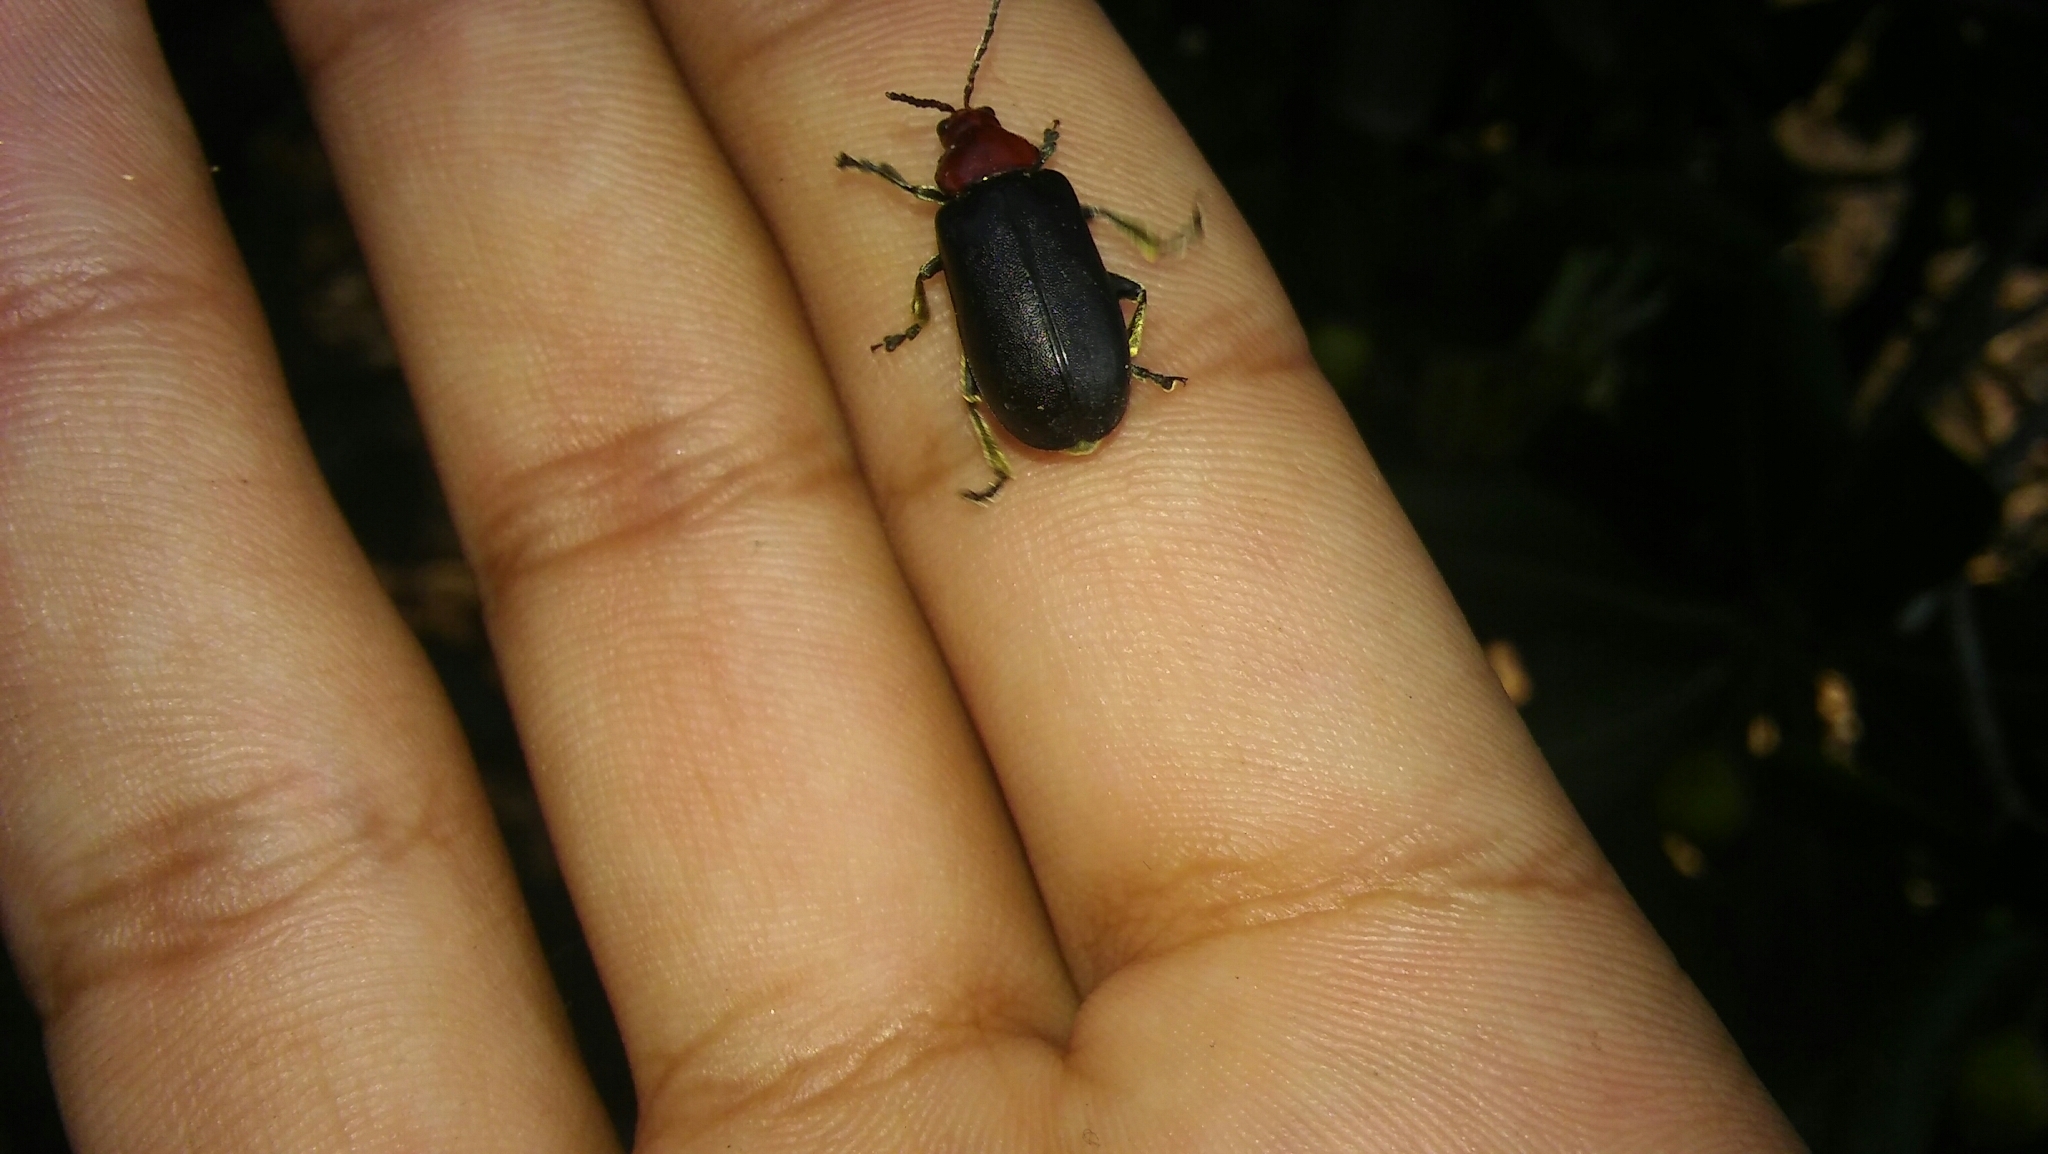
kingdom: Animalia
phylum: Arthropoda
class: Insecta
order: Coleoptera
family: Chrysomelidae
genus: Cacoscelis
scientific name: Cacoscelis
